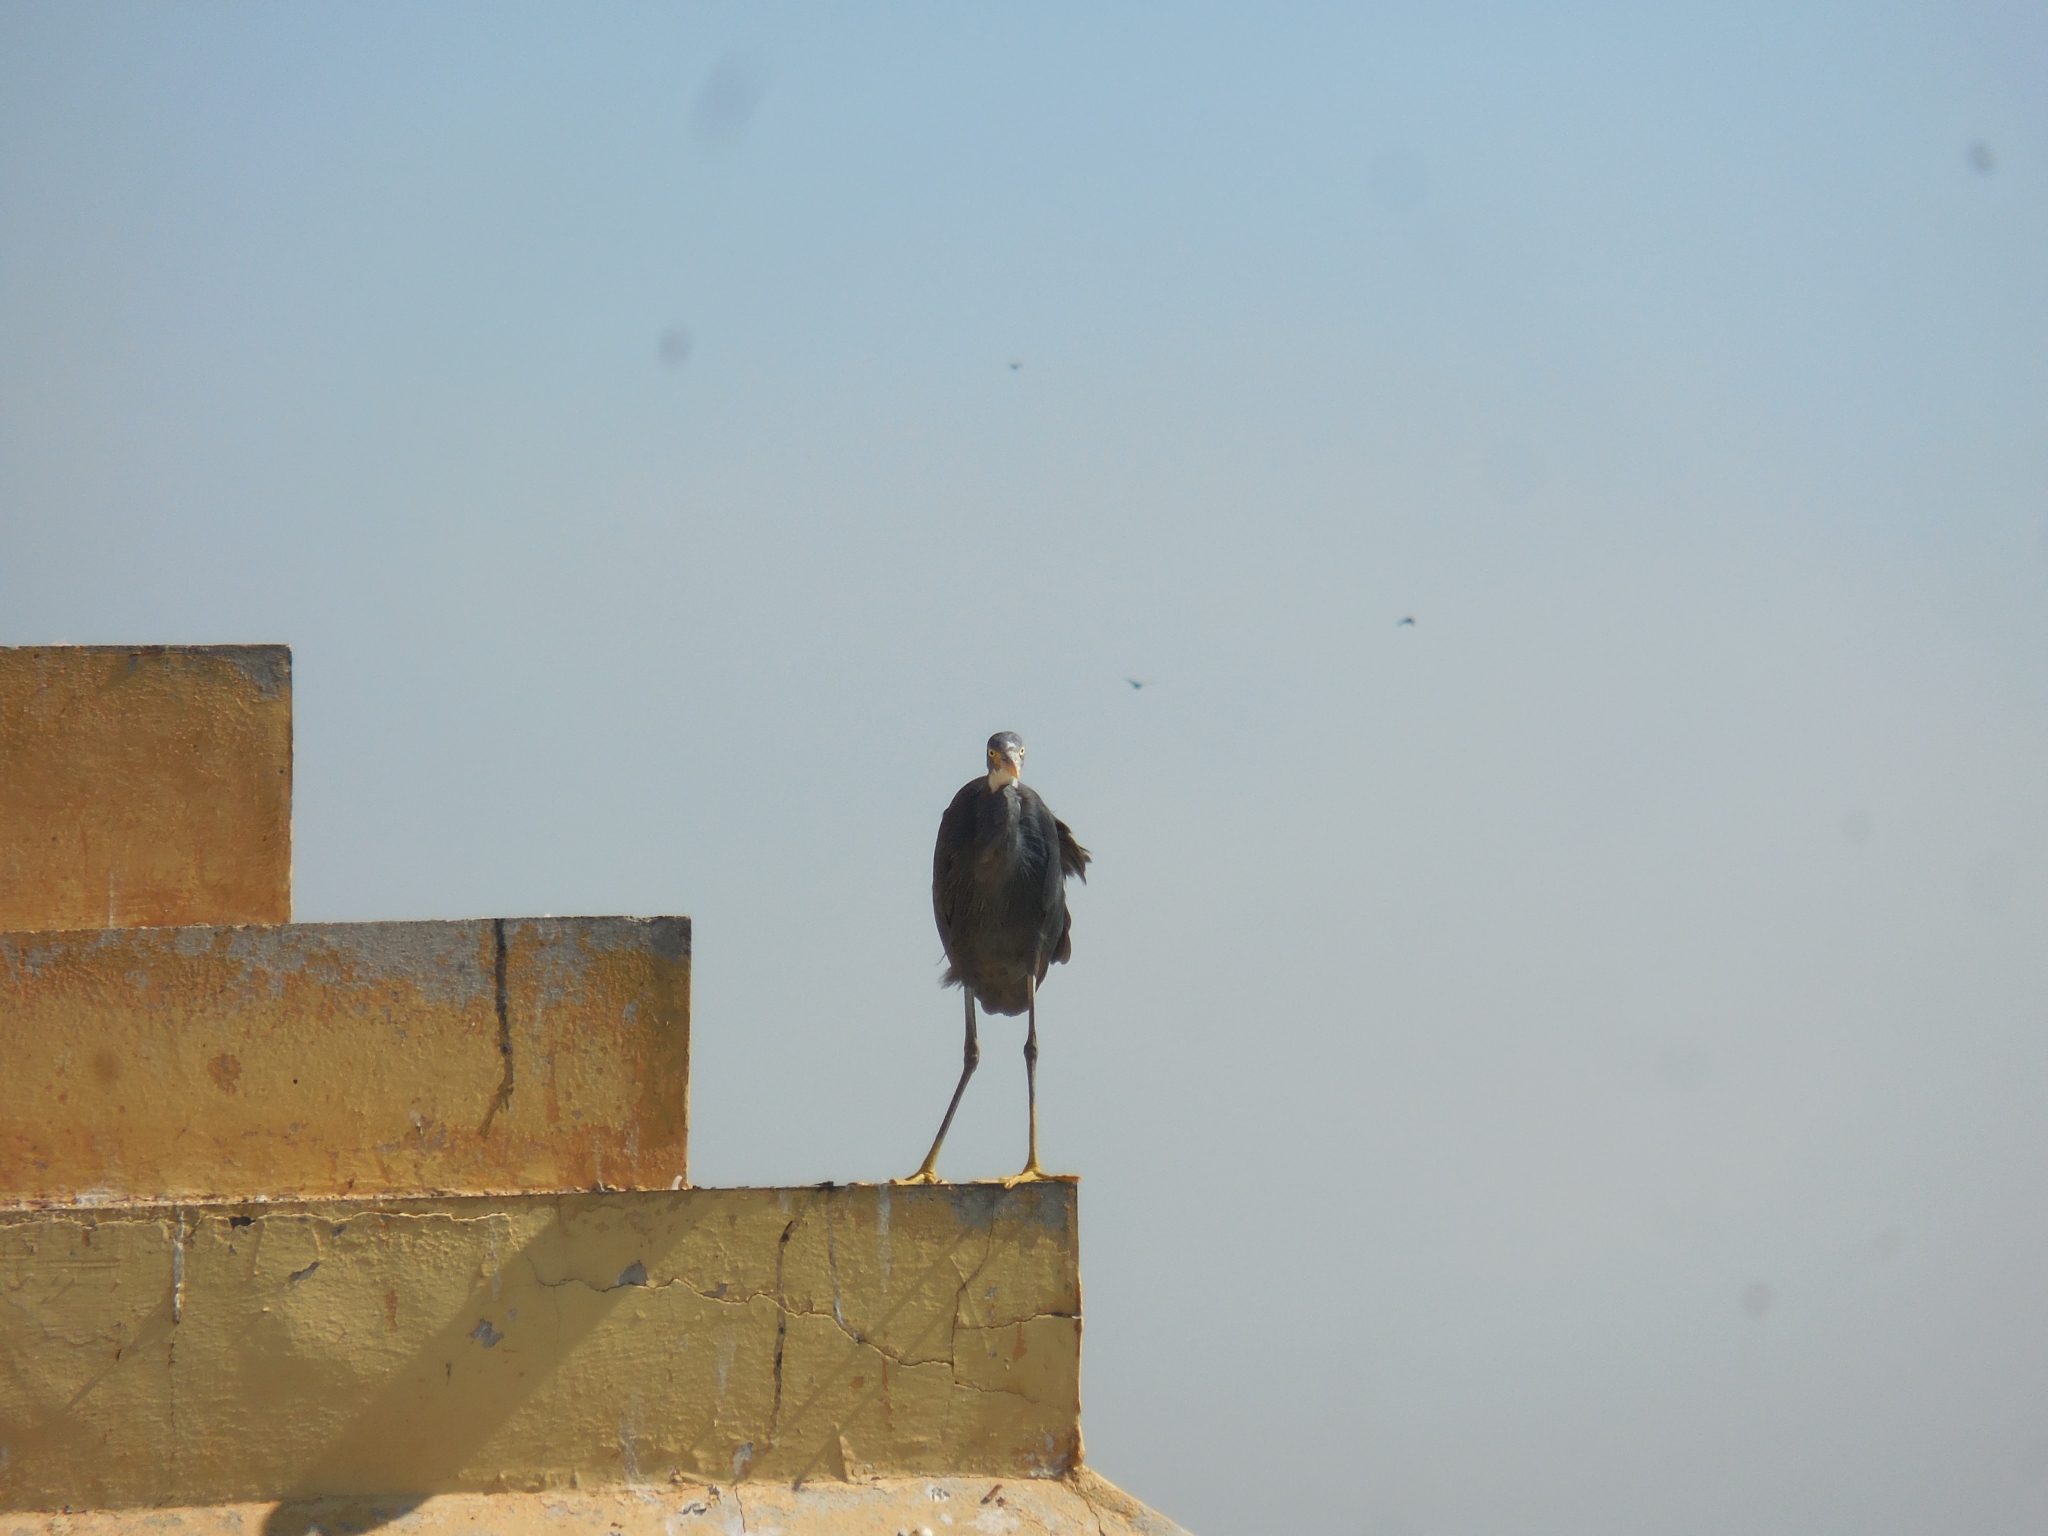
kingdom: Animalia
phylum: Chordata
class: Aves
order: Pelecaniformes
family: Ardeidae
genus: Egretta
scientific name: Egretta gularis
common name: Western reef-heron
